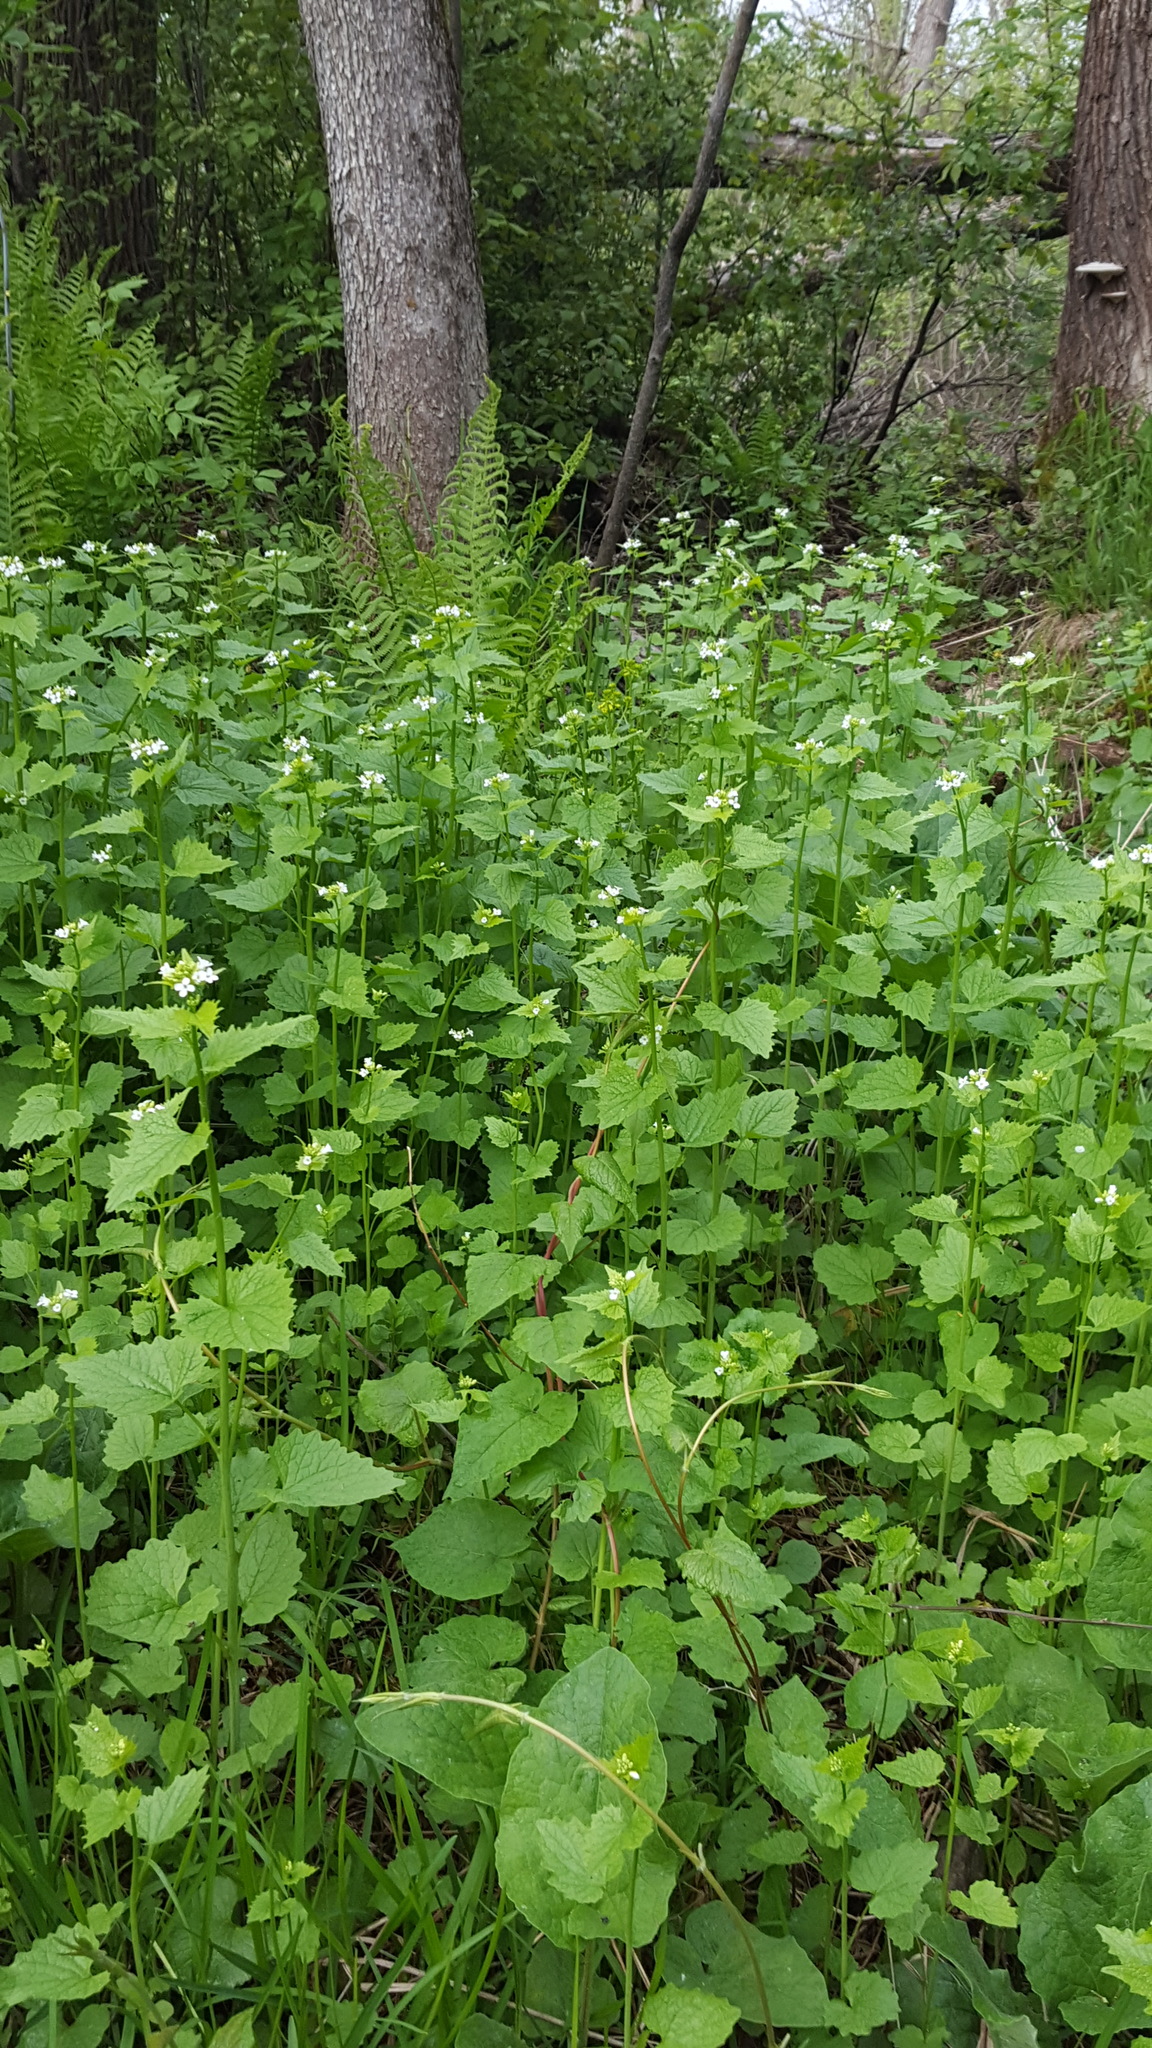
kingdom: Plantae
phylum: Tracheophyta
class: Magnoliopsida
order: Brassicales
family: Brassicaceae
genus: Alliaria
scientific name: Alliaria petiolata
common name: Garlic mustard
